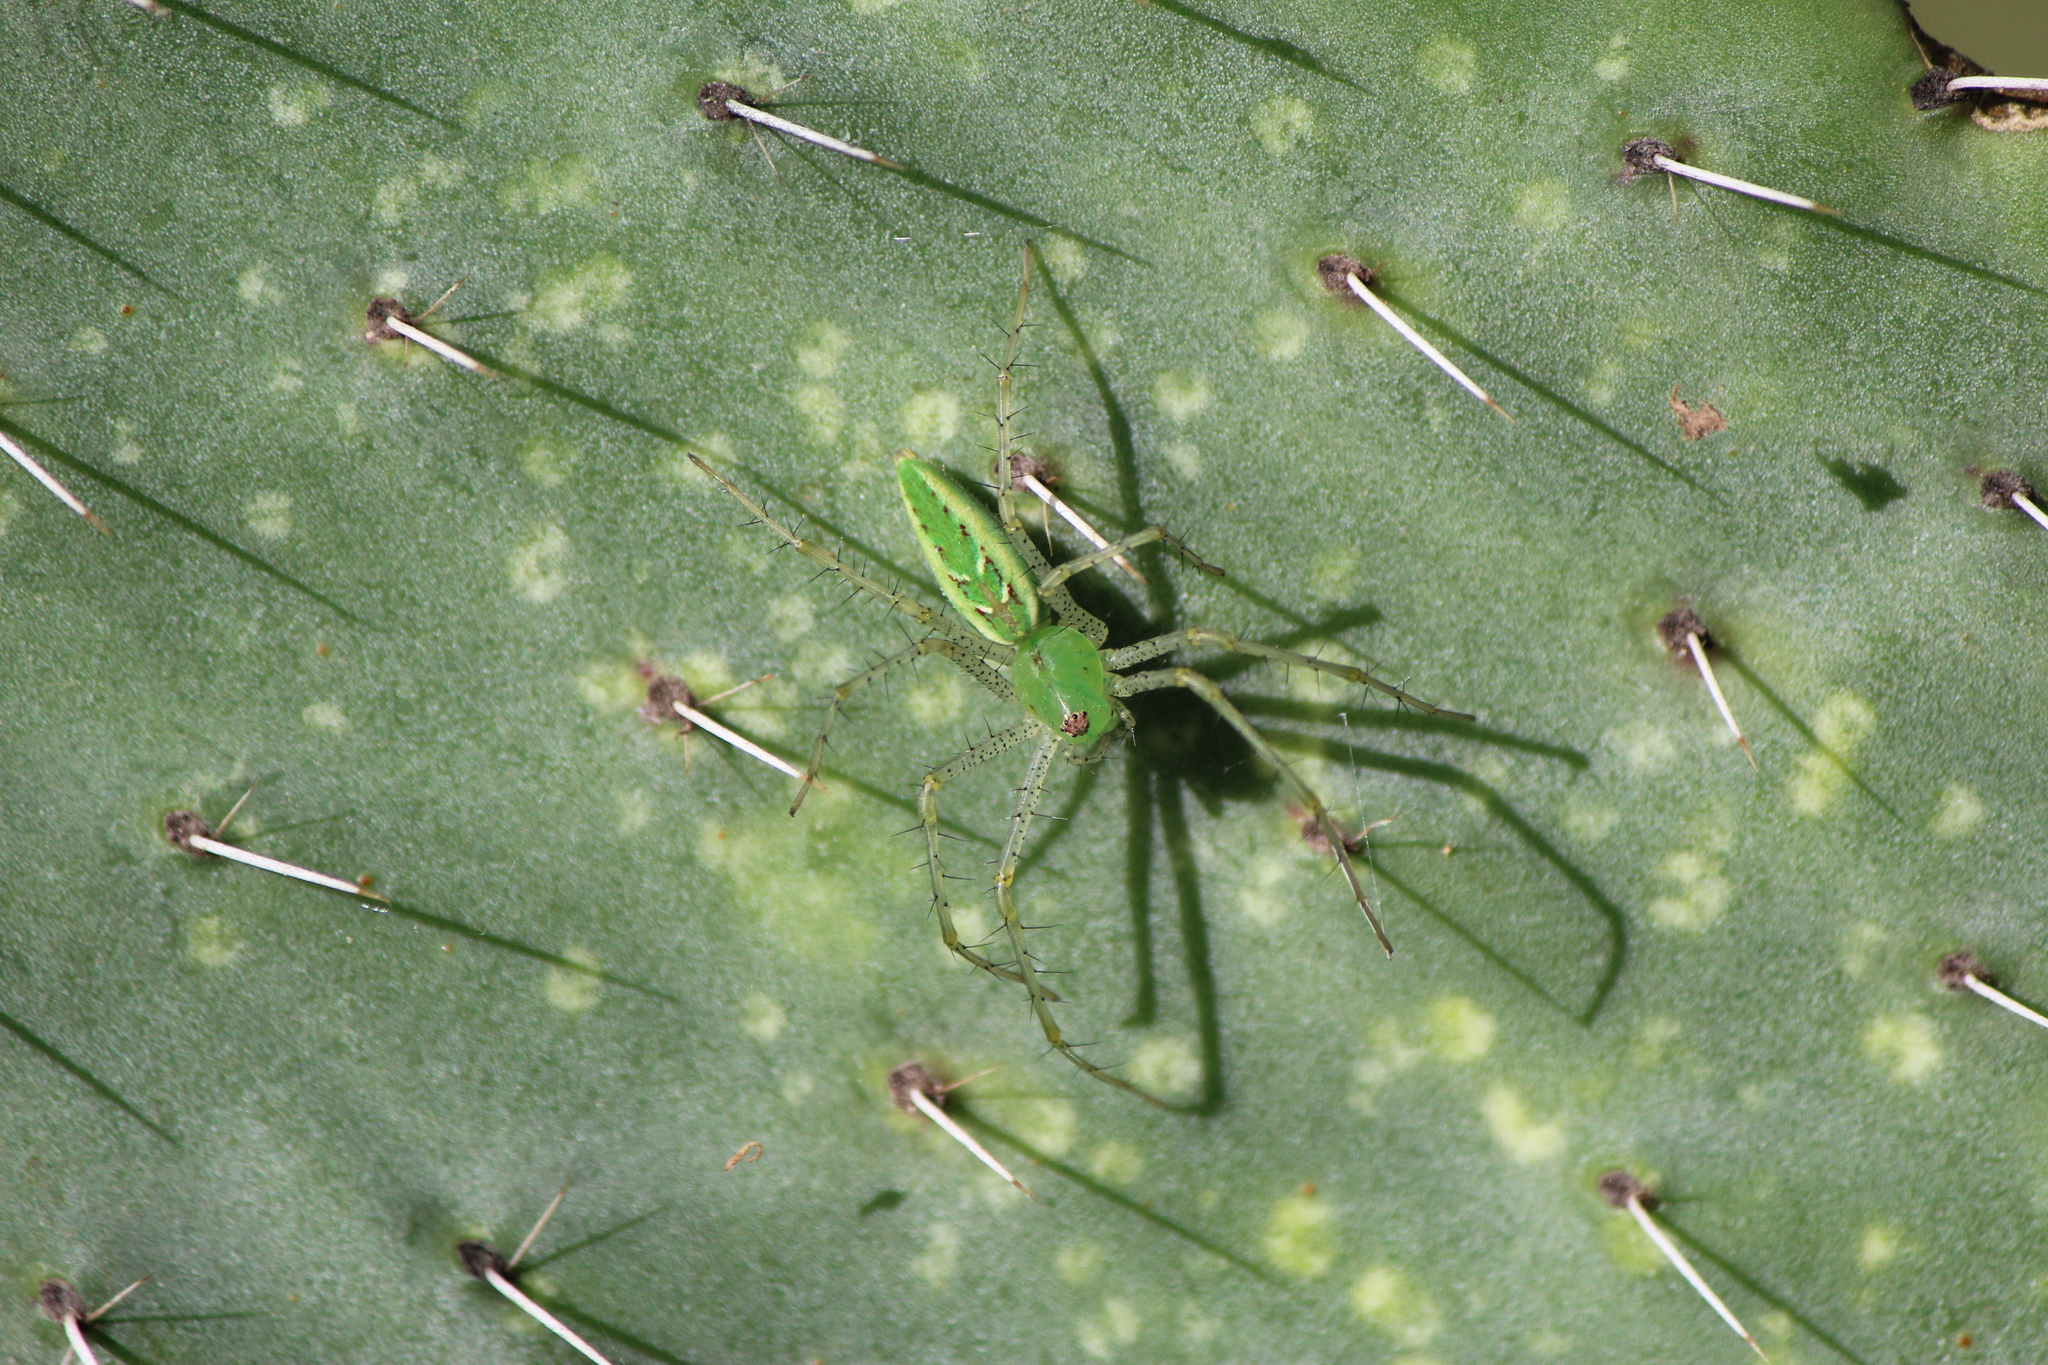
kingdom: Animalia
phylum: Arthropoda
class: Arachnida
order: Araneae
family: Oxyopidae
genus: Peucetia
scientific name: Peucetia viridans
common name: Lynx spiders
